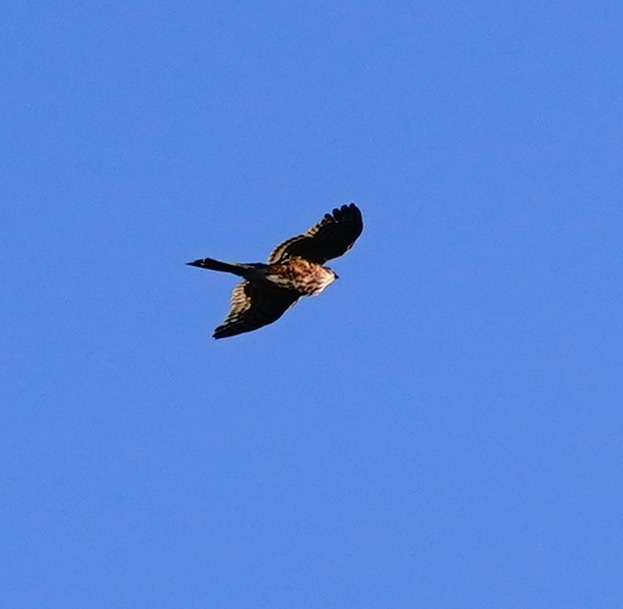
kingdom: Animalia
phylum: Chordata
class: Aves
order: Accipitriformes
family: Accipitridae
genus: Accipiter
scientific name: Accipiter striatus
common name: Sharp-shinned hawk
